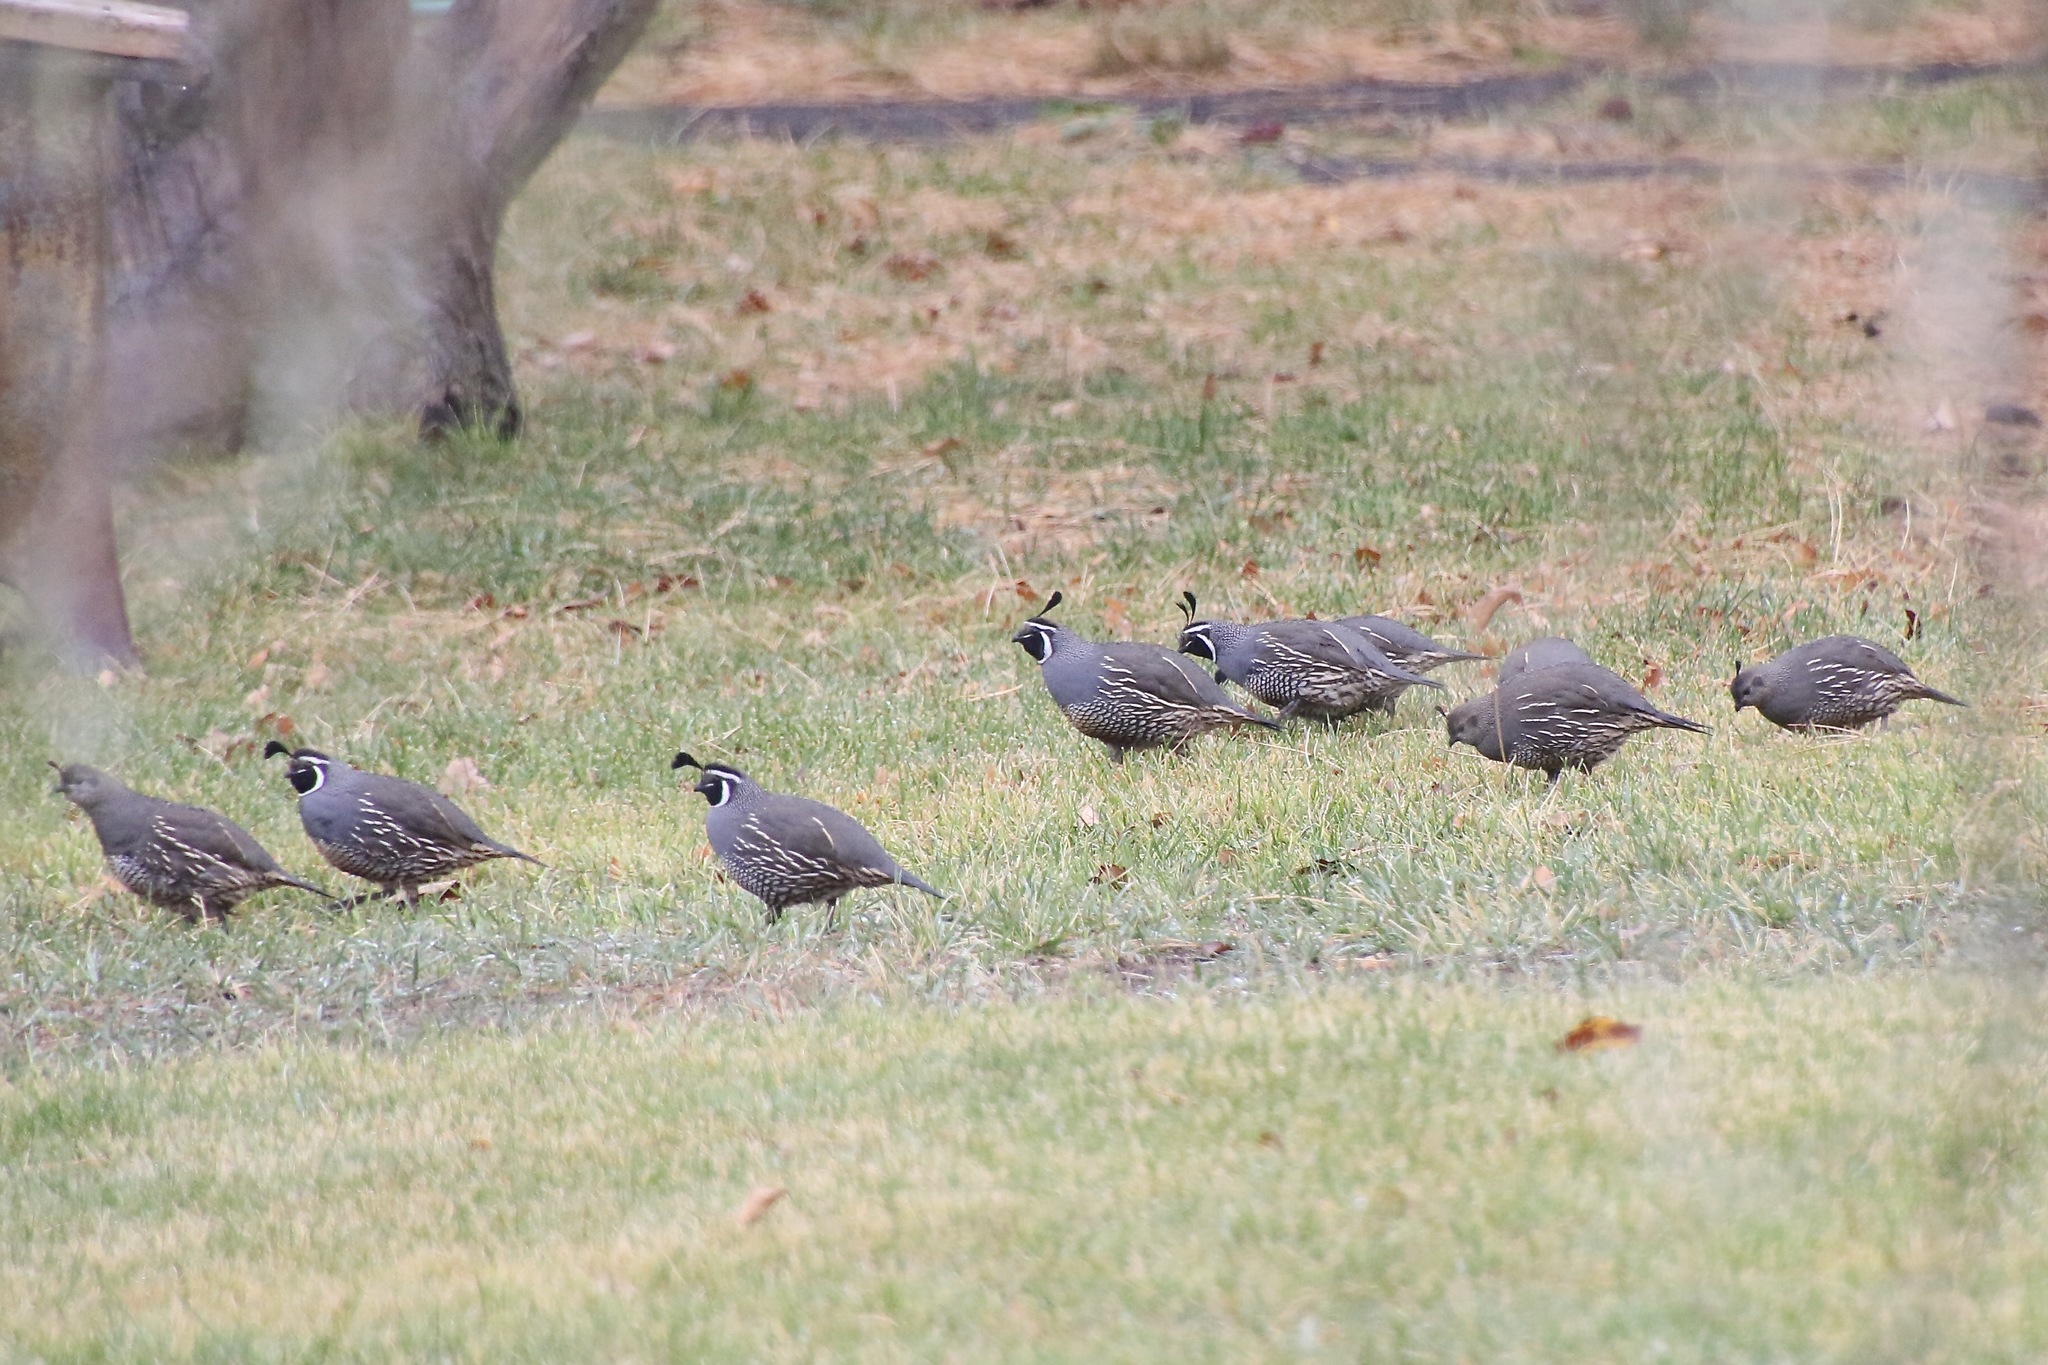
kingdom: Animalia
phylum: Chordata
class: Aves
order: Galliformes
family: Odontophoridae
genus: Callipepla
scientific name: Callipepla californica
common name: California quail
